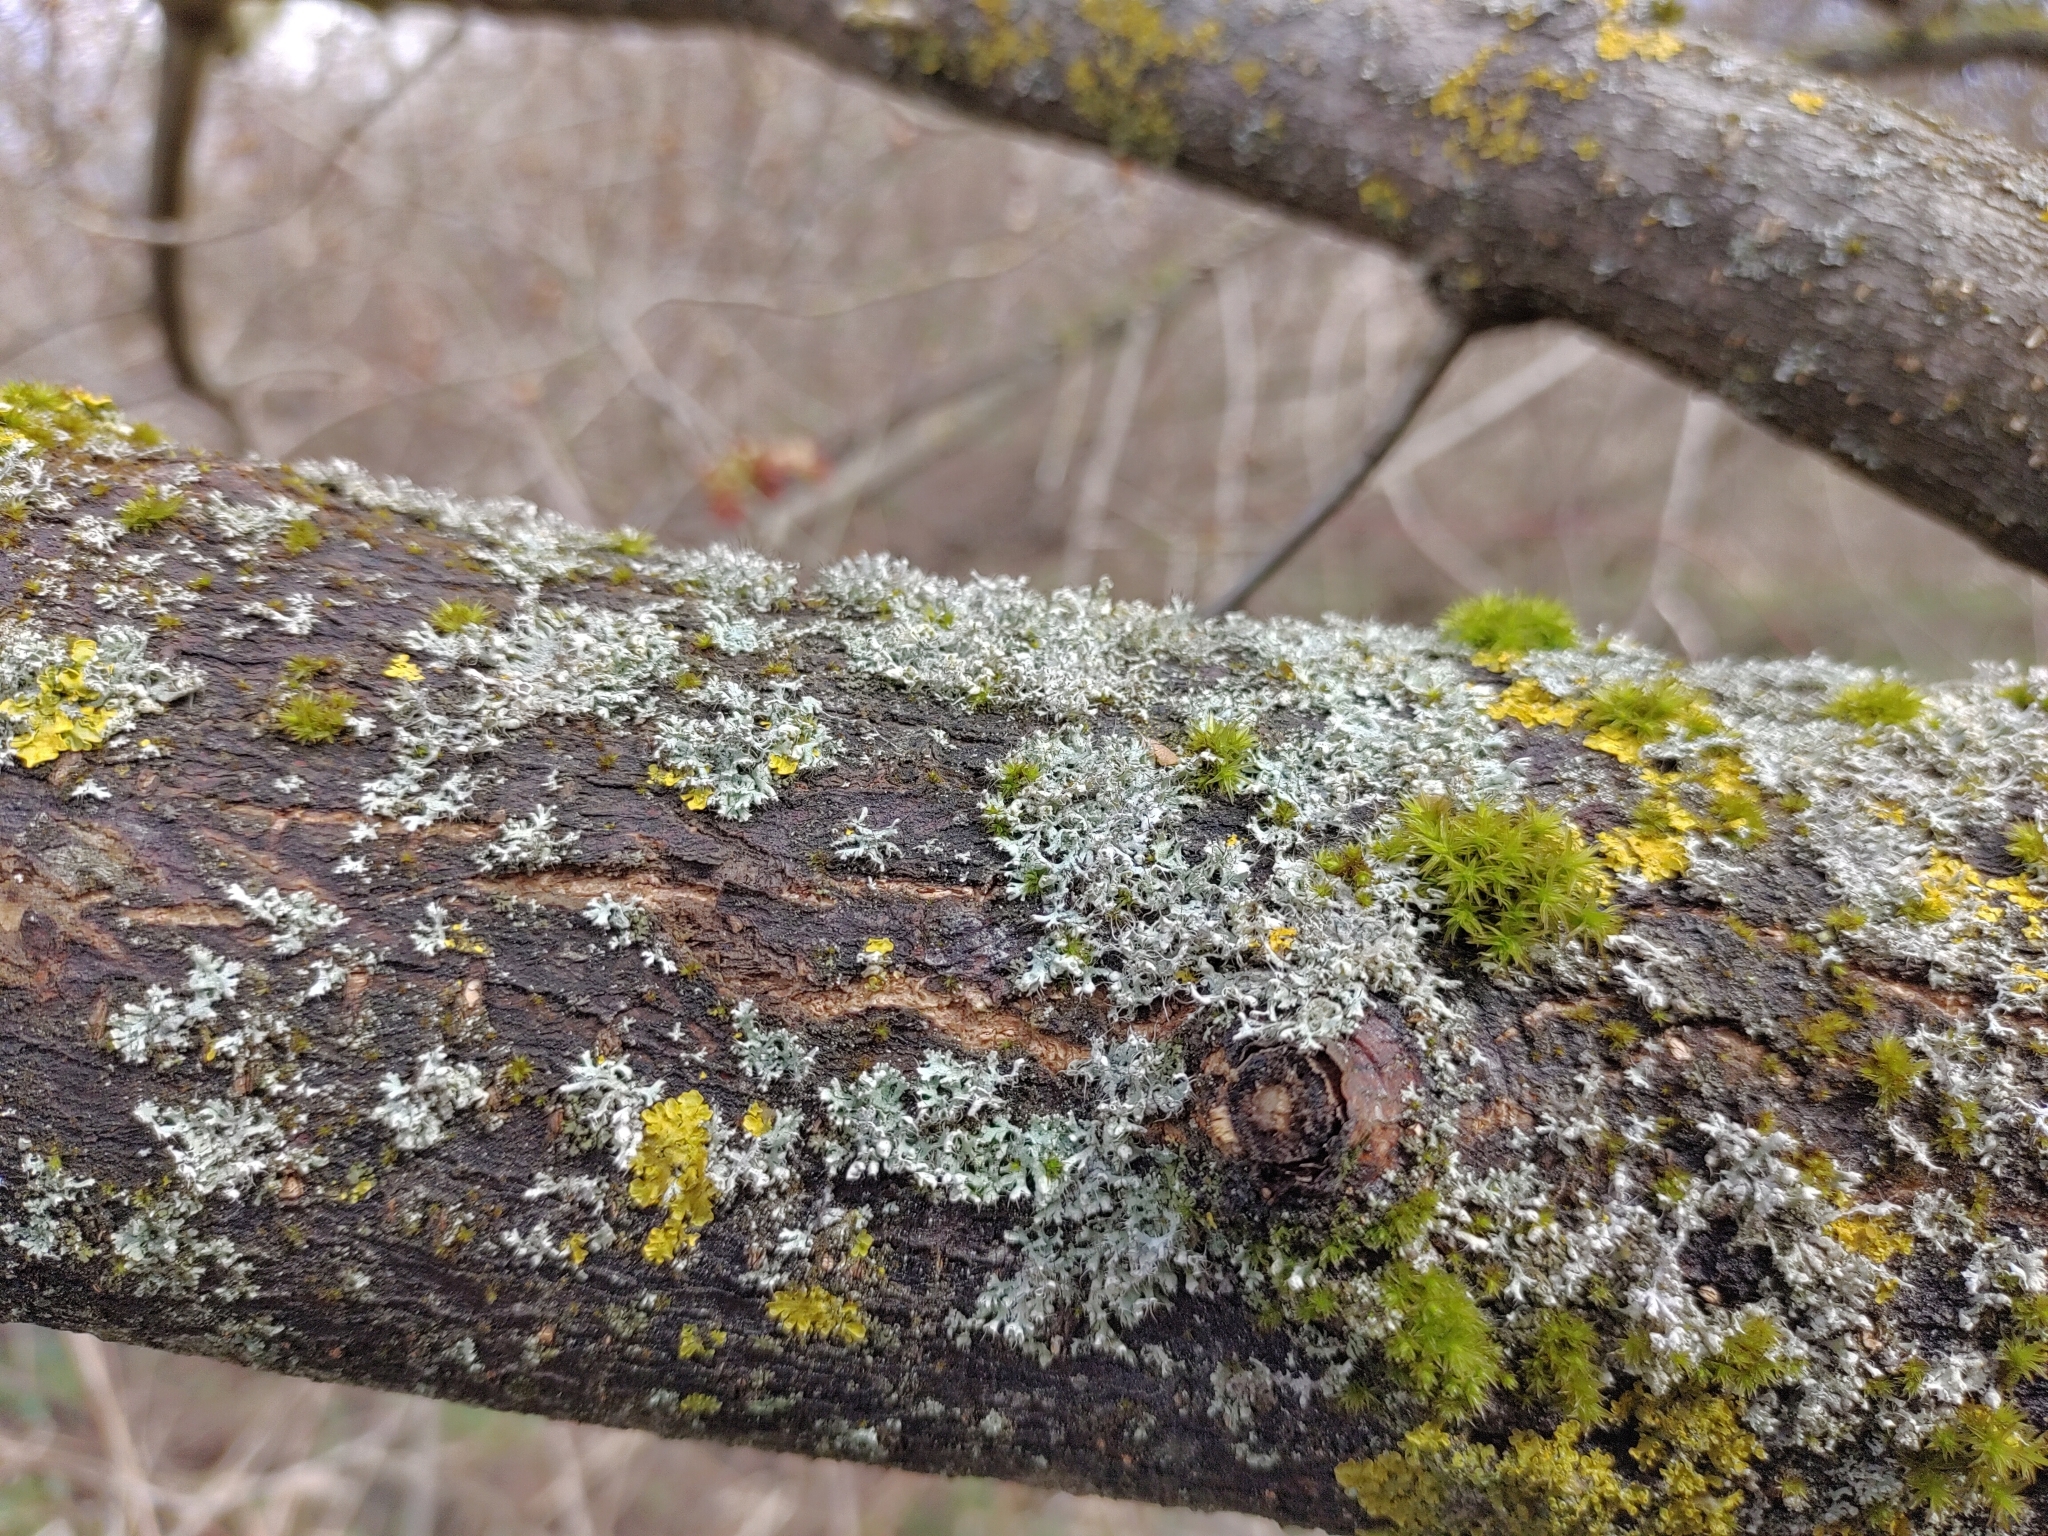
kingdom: Fungi
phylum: Ascomycota
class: Lecanoromycetes
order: Caliciales
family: Physciaceae
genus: Physcia
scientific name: Physcia adscendens
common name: Hooded rosette lichen
